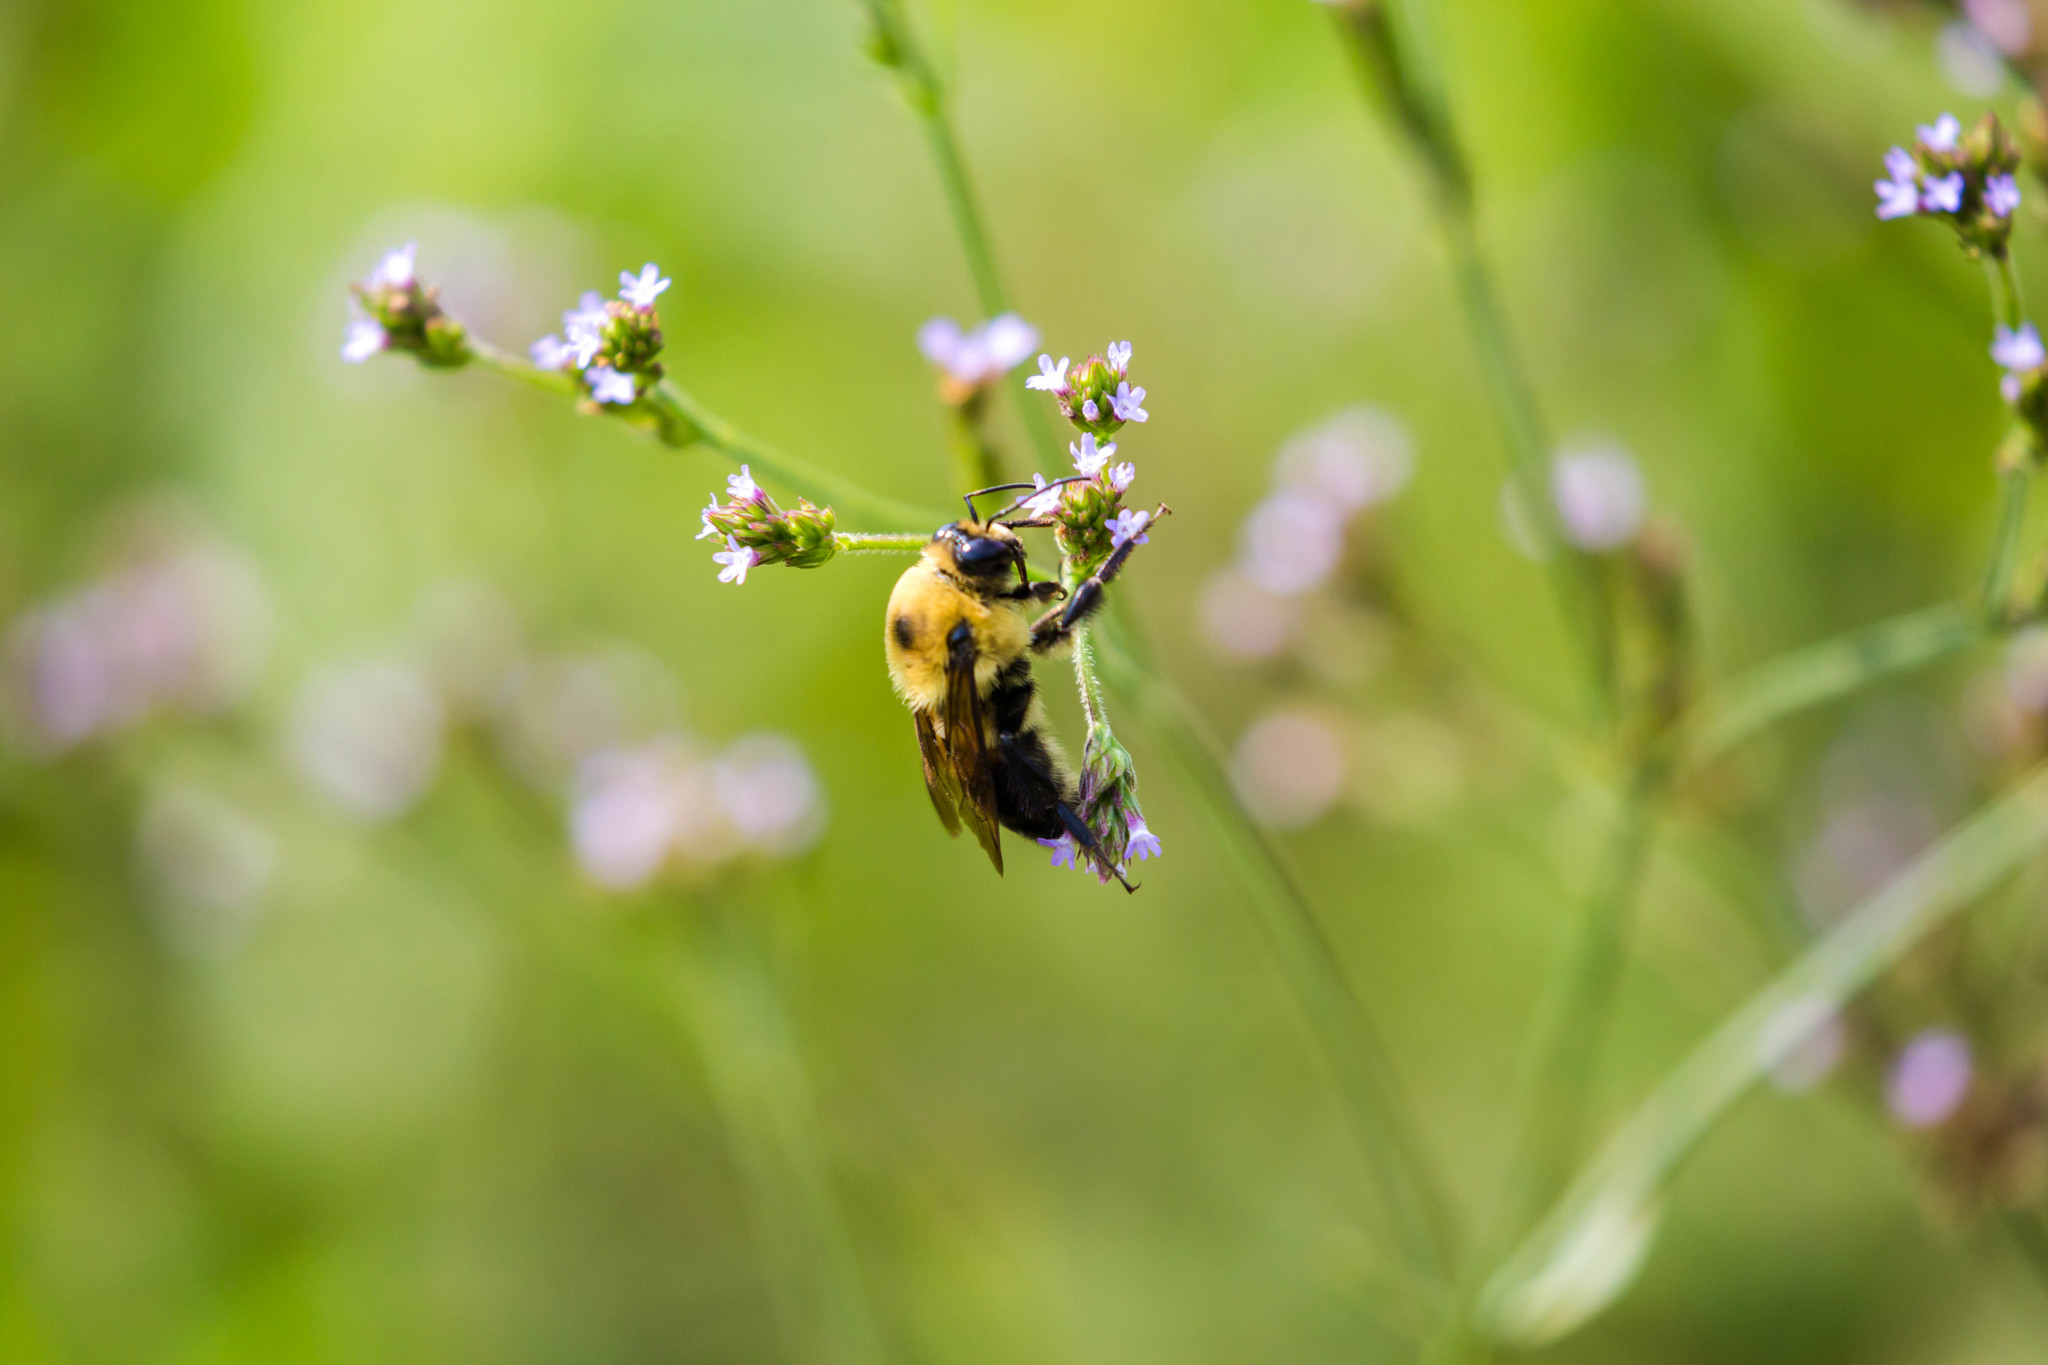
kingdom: Animalia
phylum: Arthropoda
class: Insecta
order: Hymenoptera
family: Apidae
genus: Bombus
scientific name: Bombus griseocollis
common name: Brown-belted bumble bee
